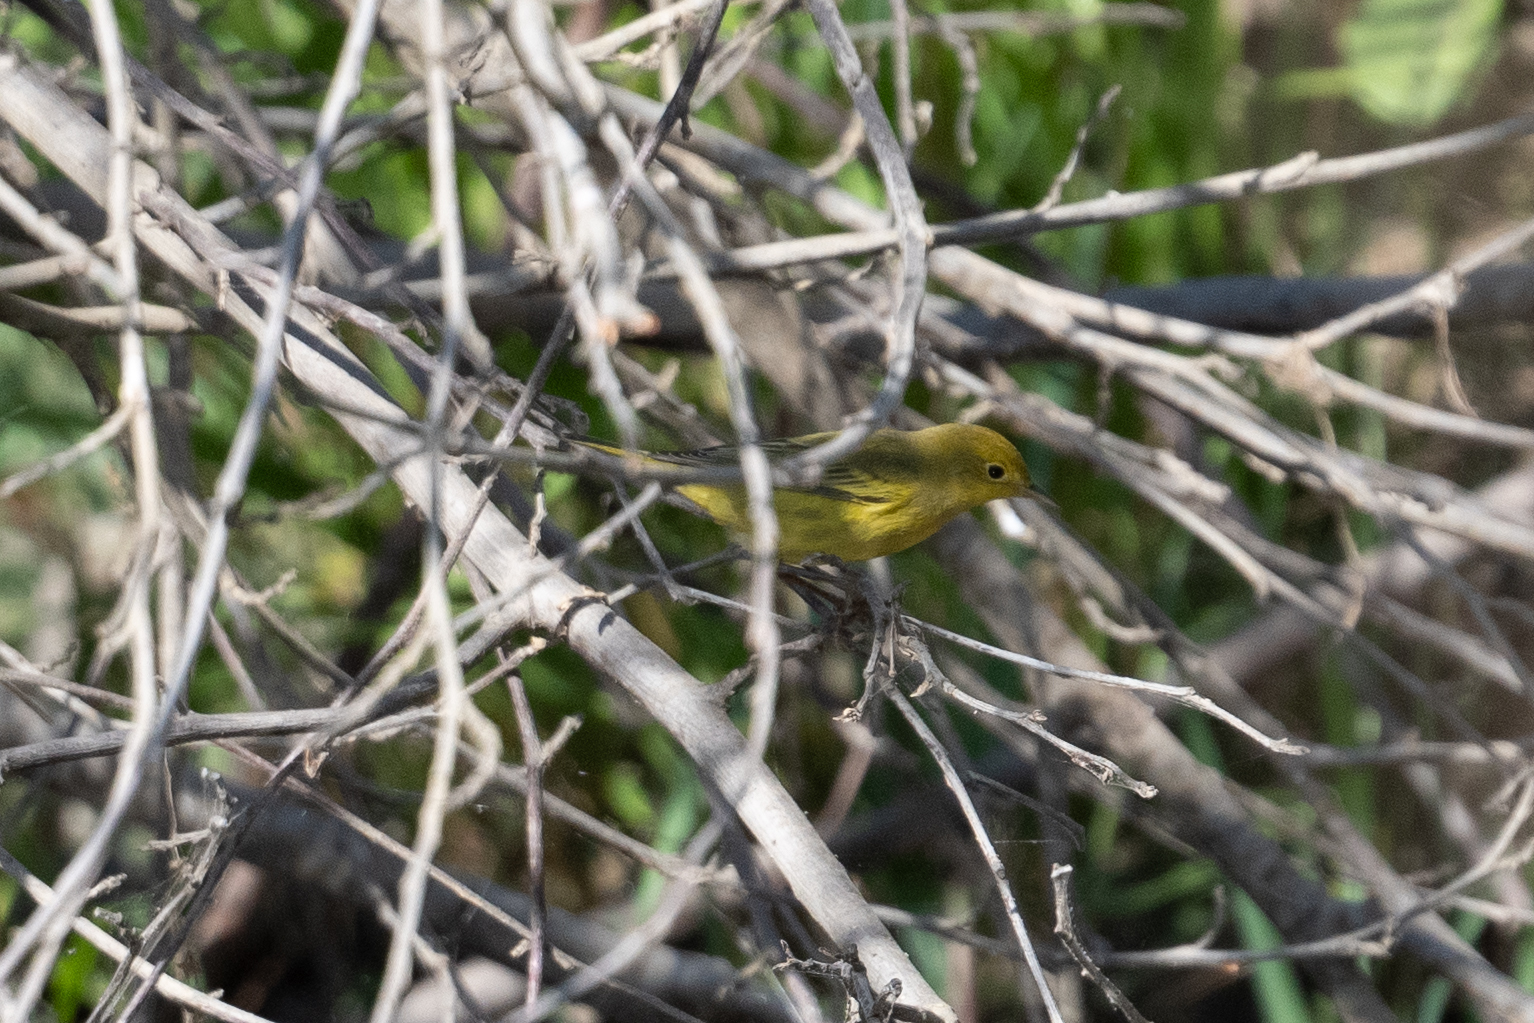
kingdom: Animalia
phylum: Chordata
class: Aves
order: Passeriformes
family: Parulidae
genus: Setophaga
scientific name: Setophaga petechia
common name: Yellow warbler
